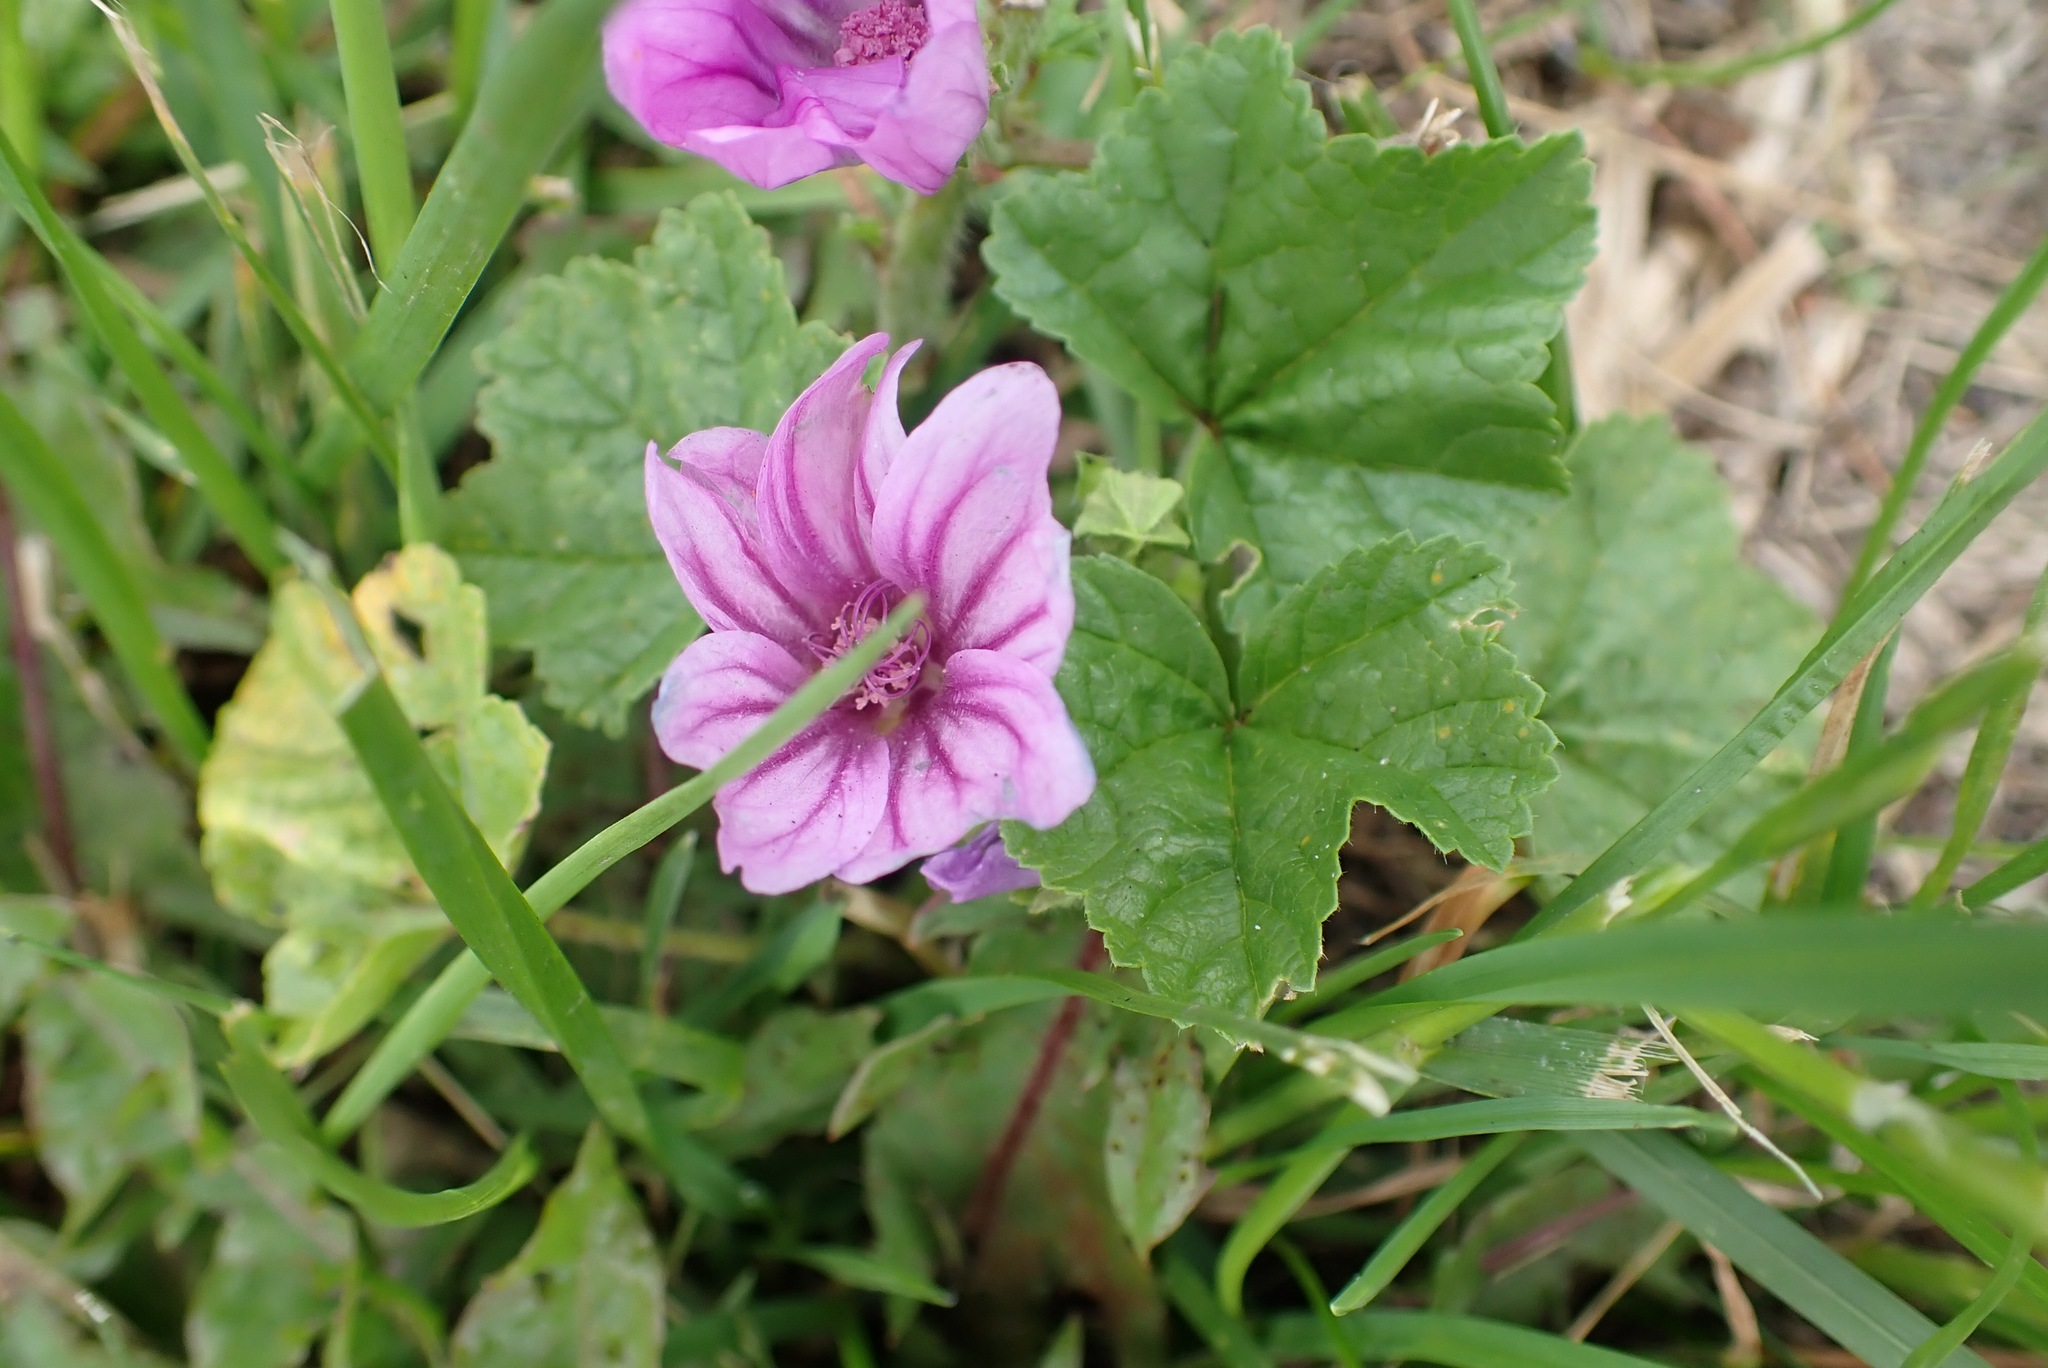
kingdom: Plantae
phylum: Tracheophyta
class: Magnoliopsida
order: Malvales
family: Malvaceae
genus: Malva
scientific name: Malva sylvestris
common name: Common mallow
